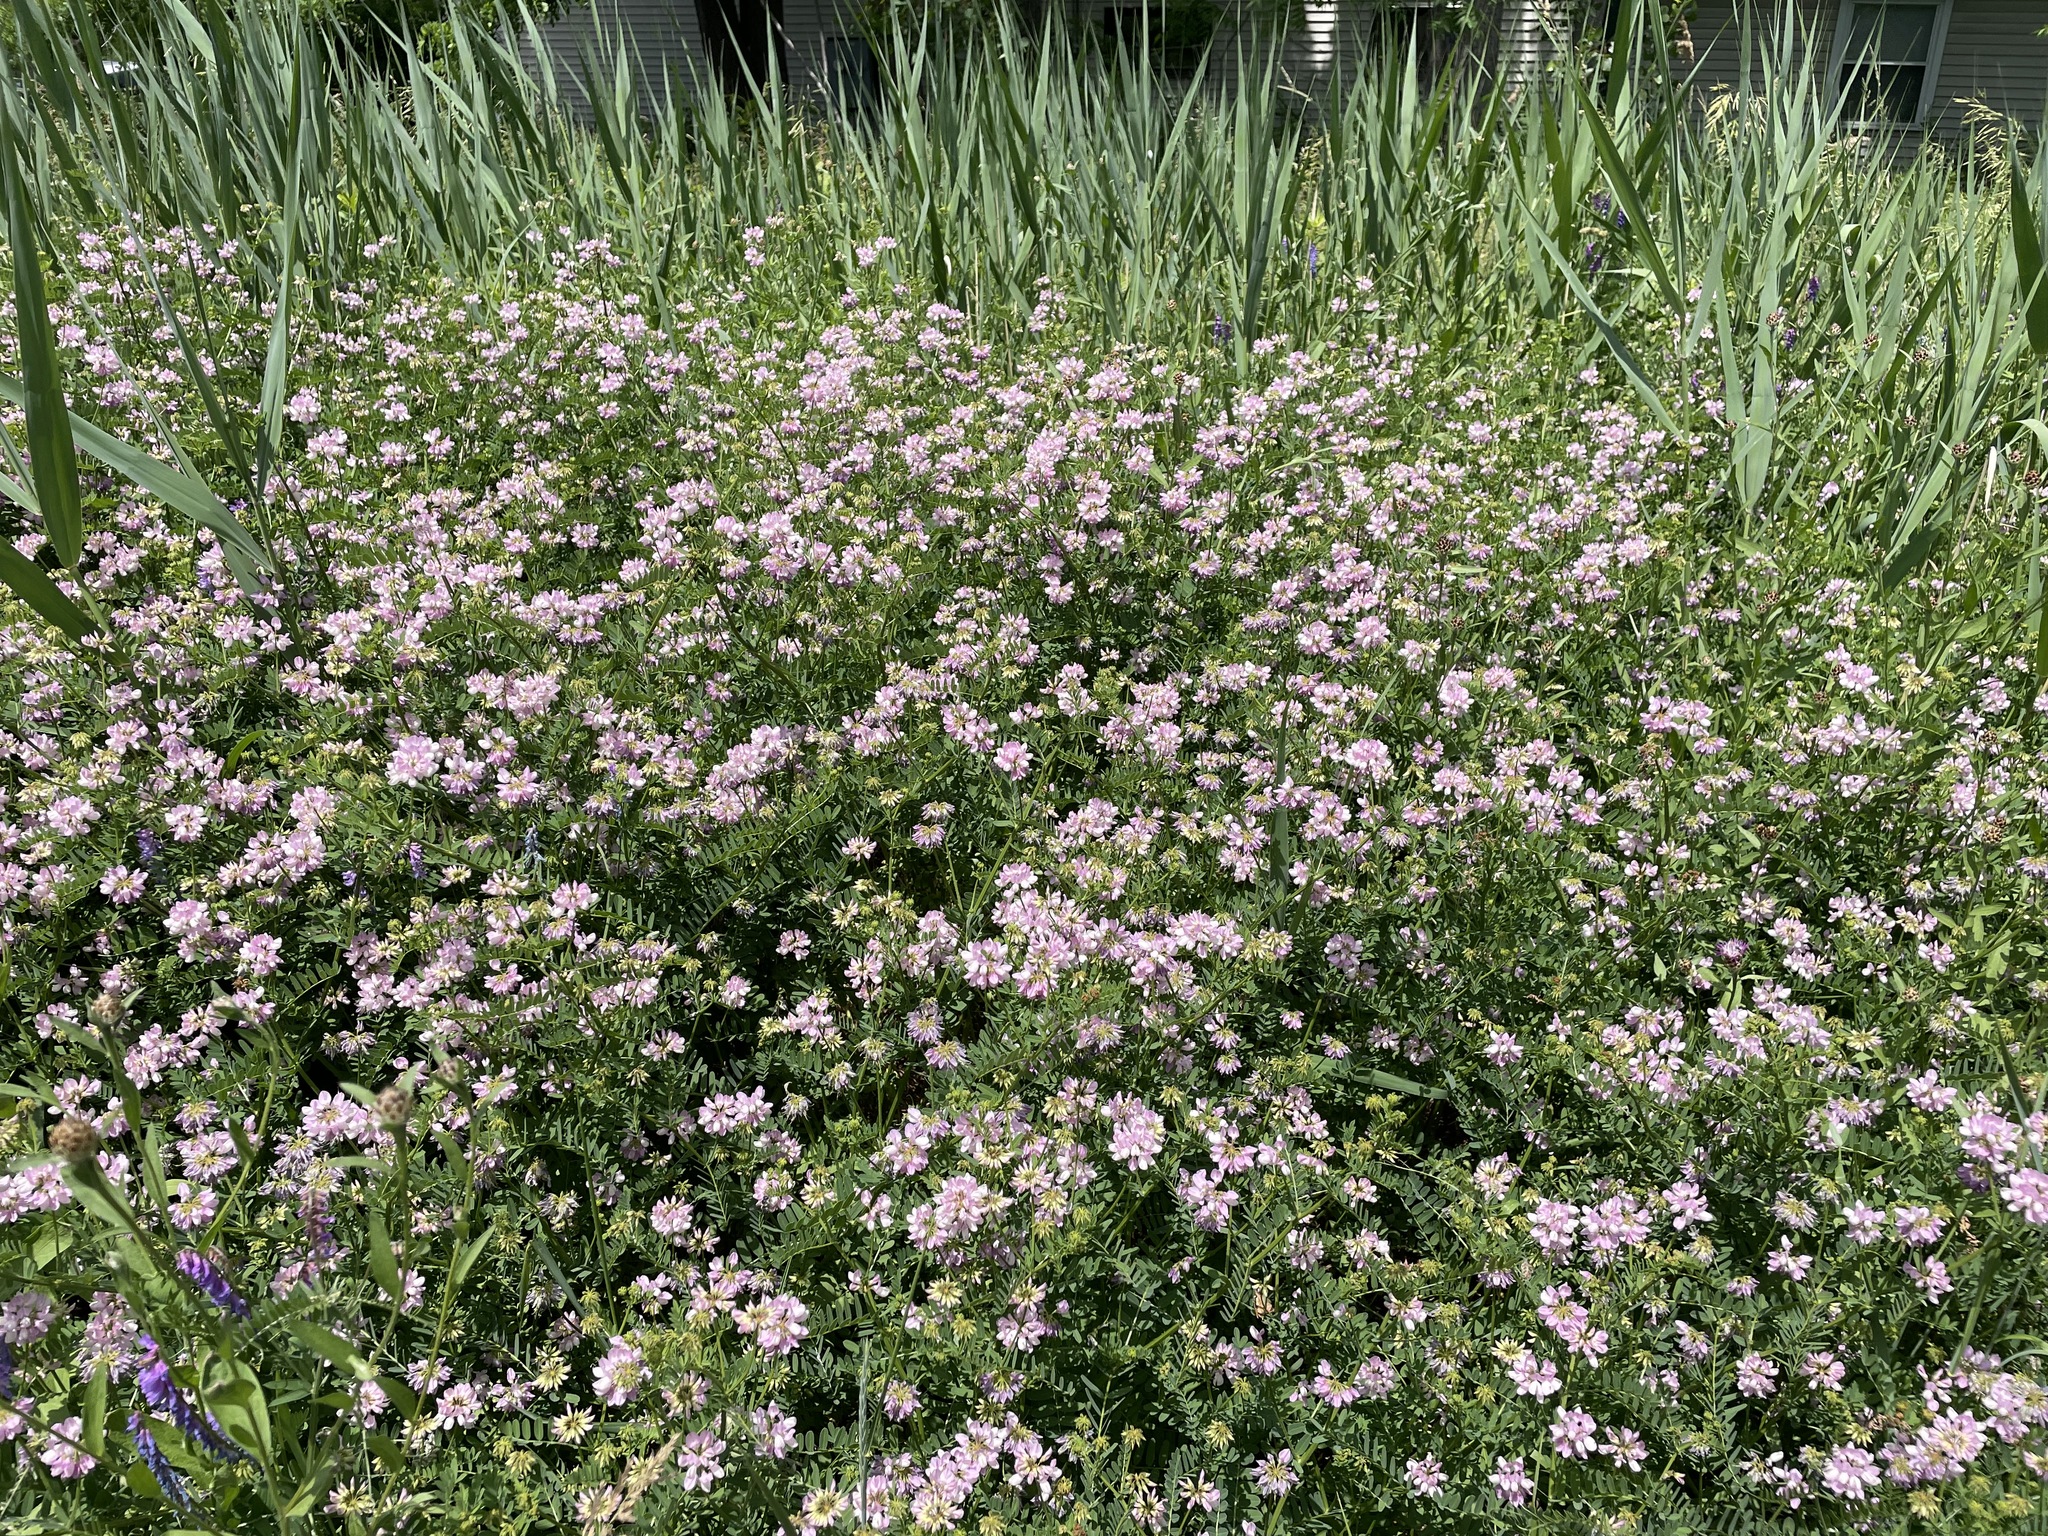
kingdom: Plantae
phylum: Tracheophyta
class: Magnoliopsida
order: Fabales
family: Fabaceae
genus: Coronilla
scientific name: Coronilla varia
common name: Crownvetch
